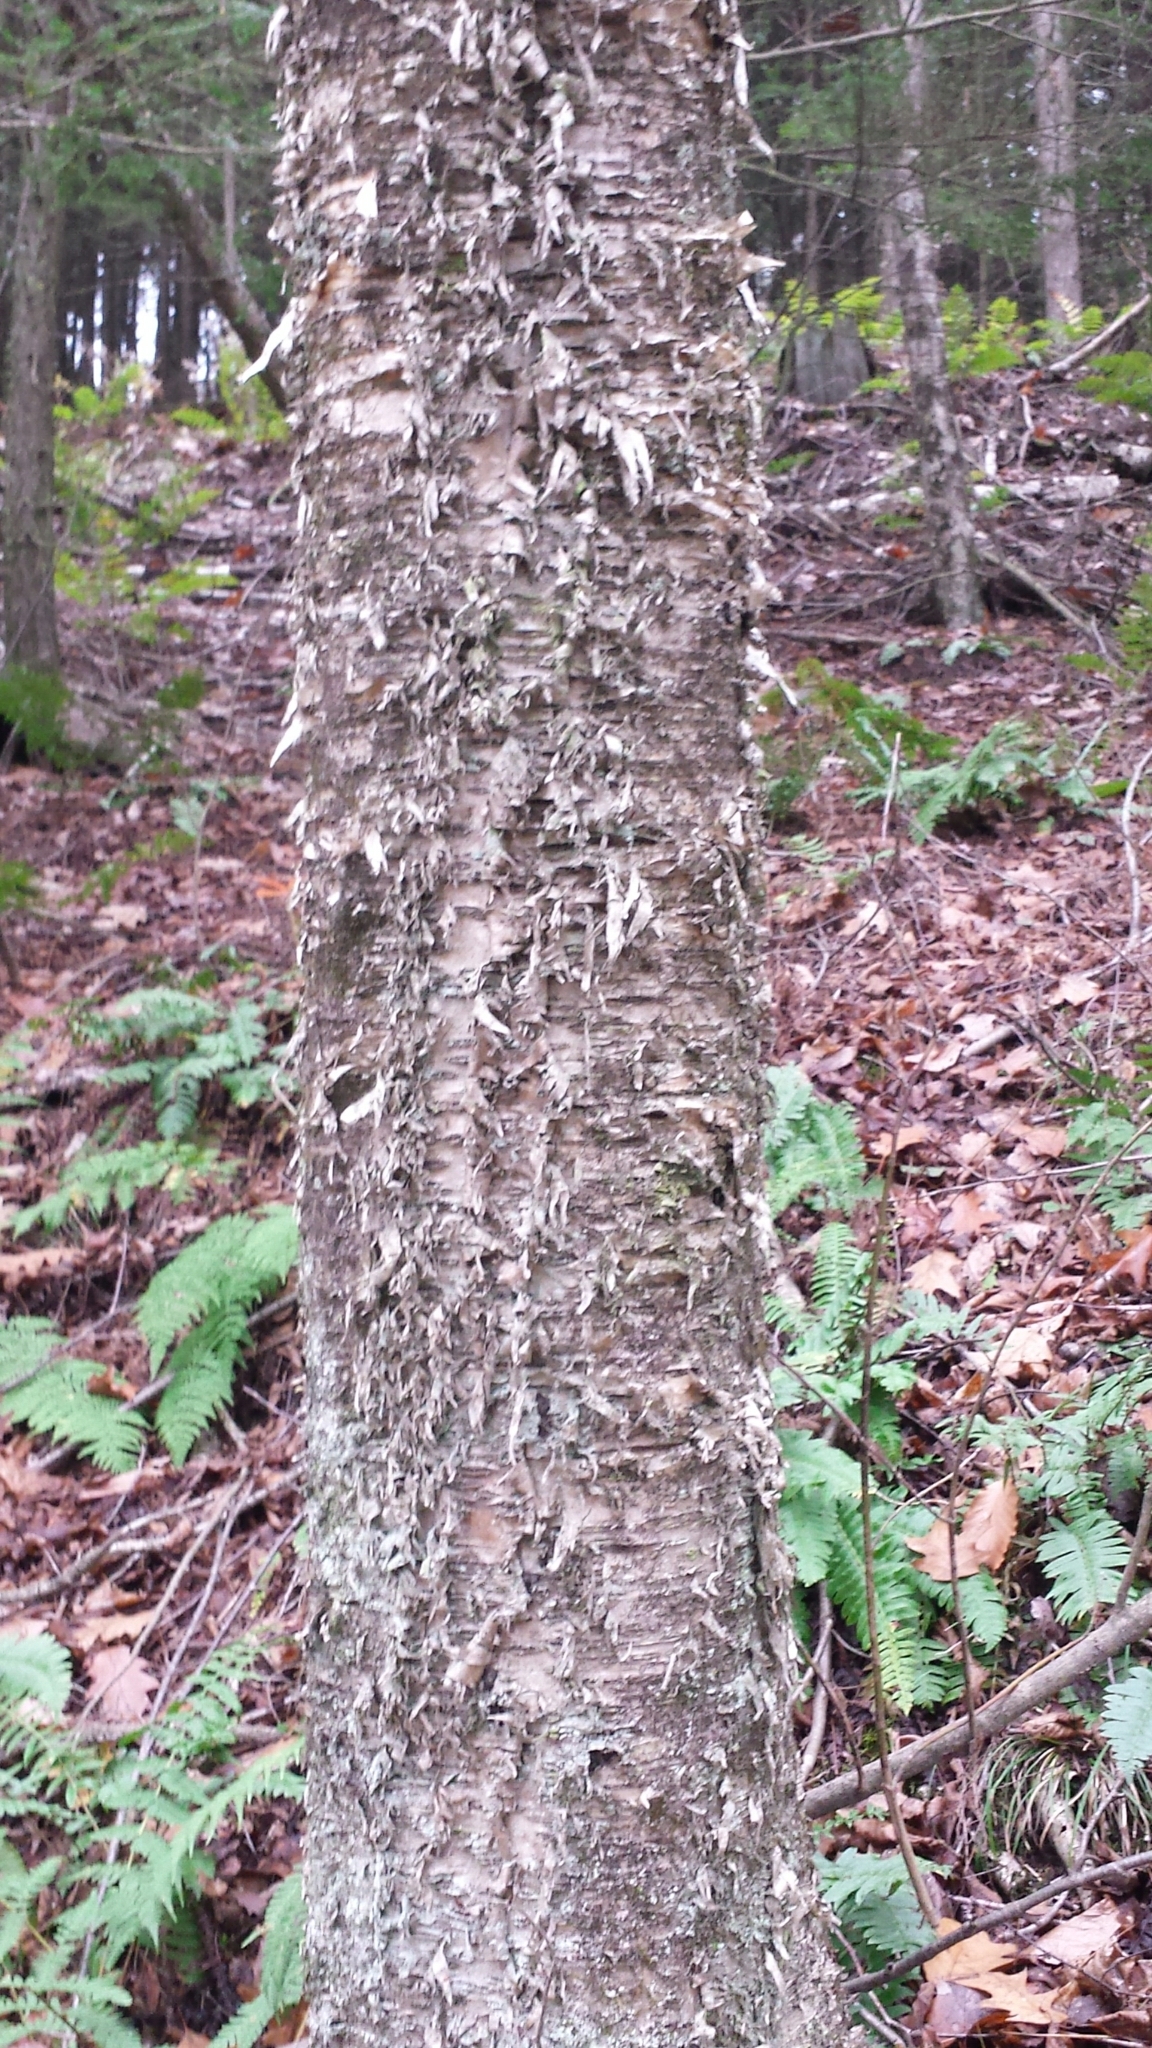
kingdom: Plantae
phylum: Tracheophyta
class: Magnoliopsida
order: Fagales
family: Betulaceae
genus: Betula
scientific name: Betula alleghaniensis
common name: Yellow birch
